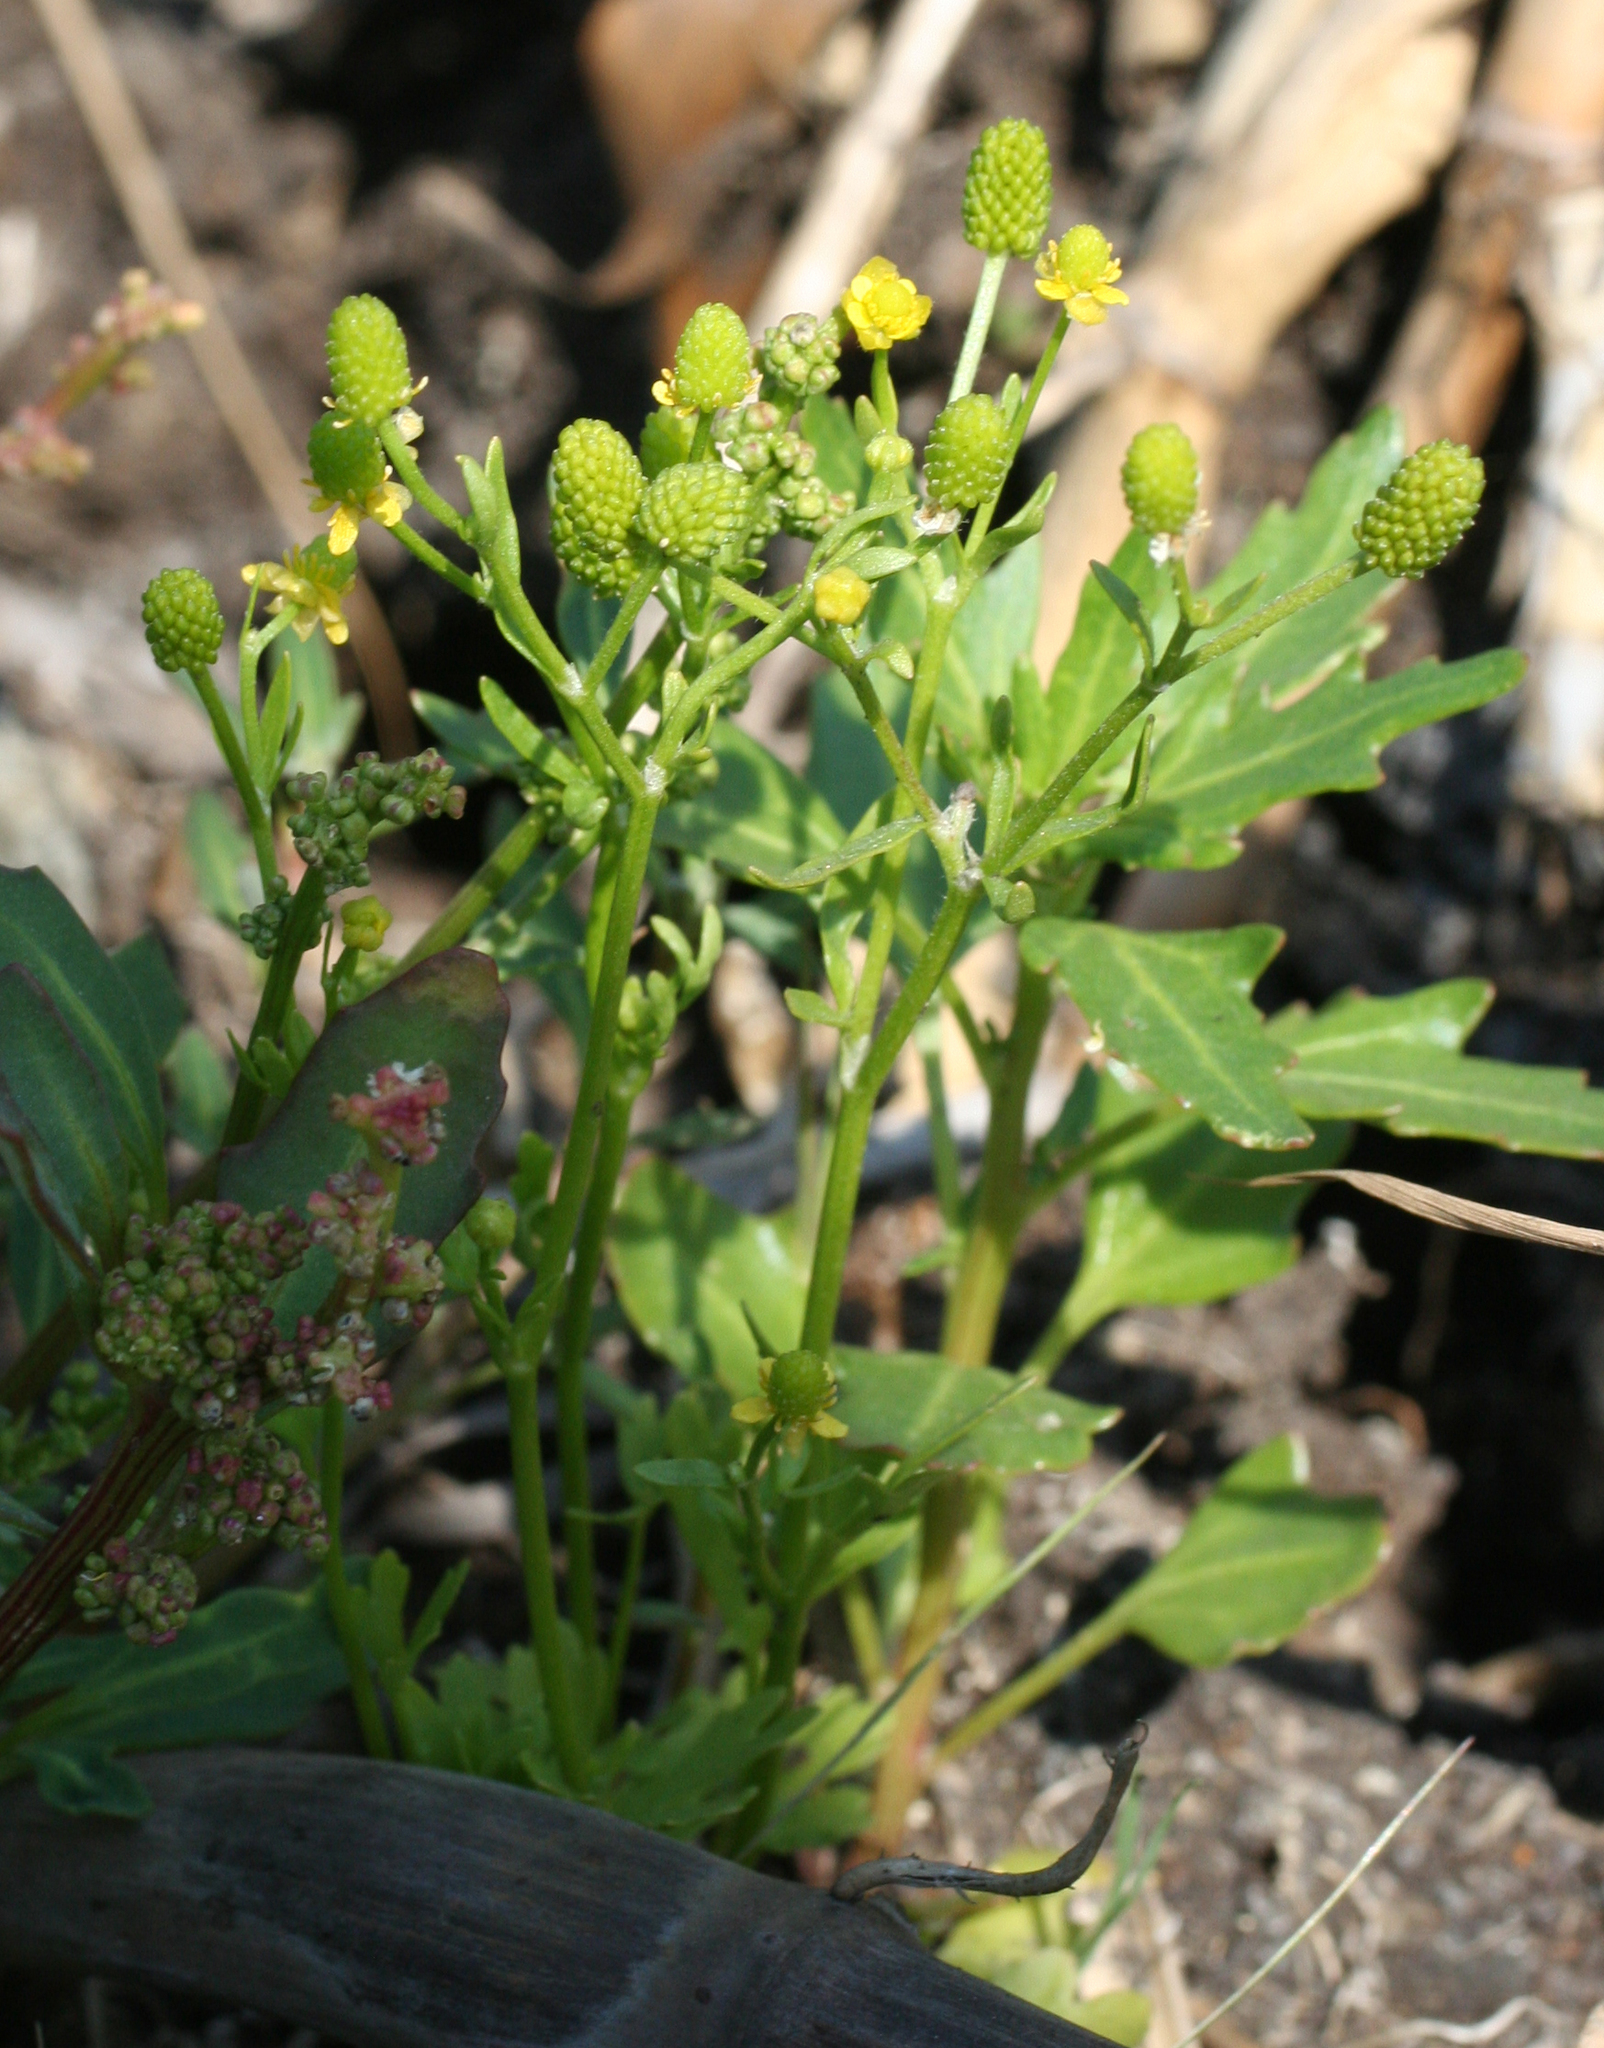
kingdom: Plantae
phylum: Tracheophyta
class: Magnoliopsida
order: Ranunculales
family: Ranunculaceae
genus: Ranunculus
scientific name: Ranunculus sceleratus
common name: Celery-leaved buttercup
